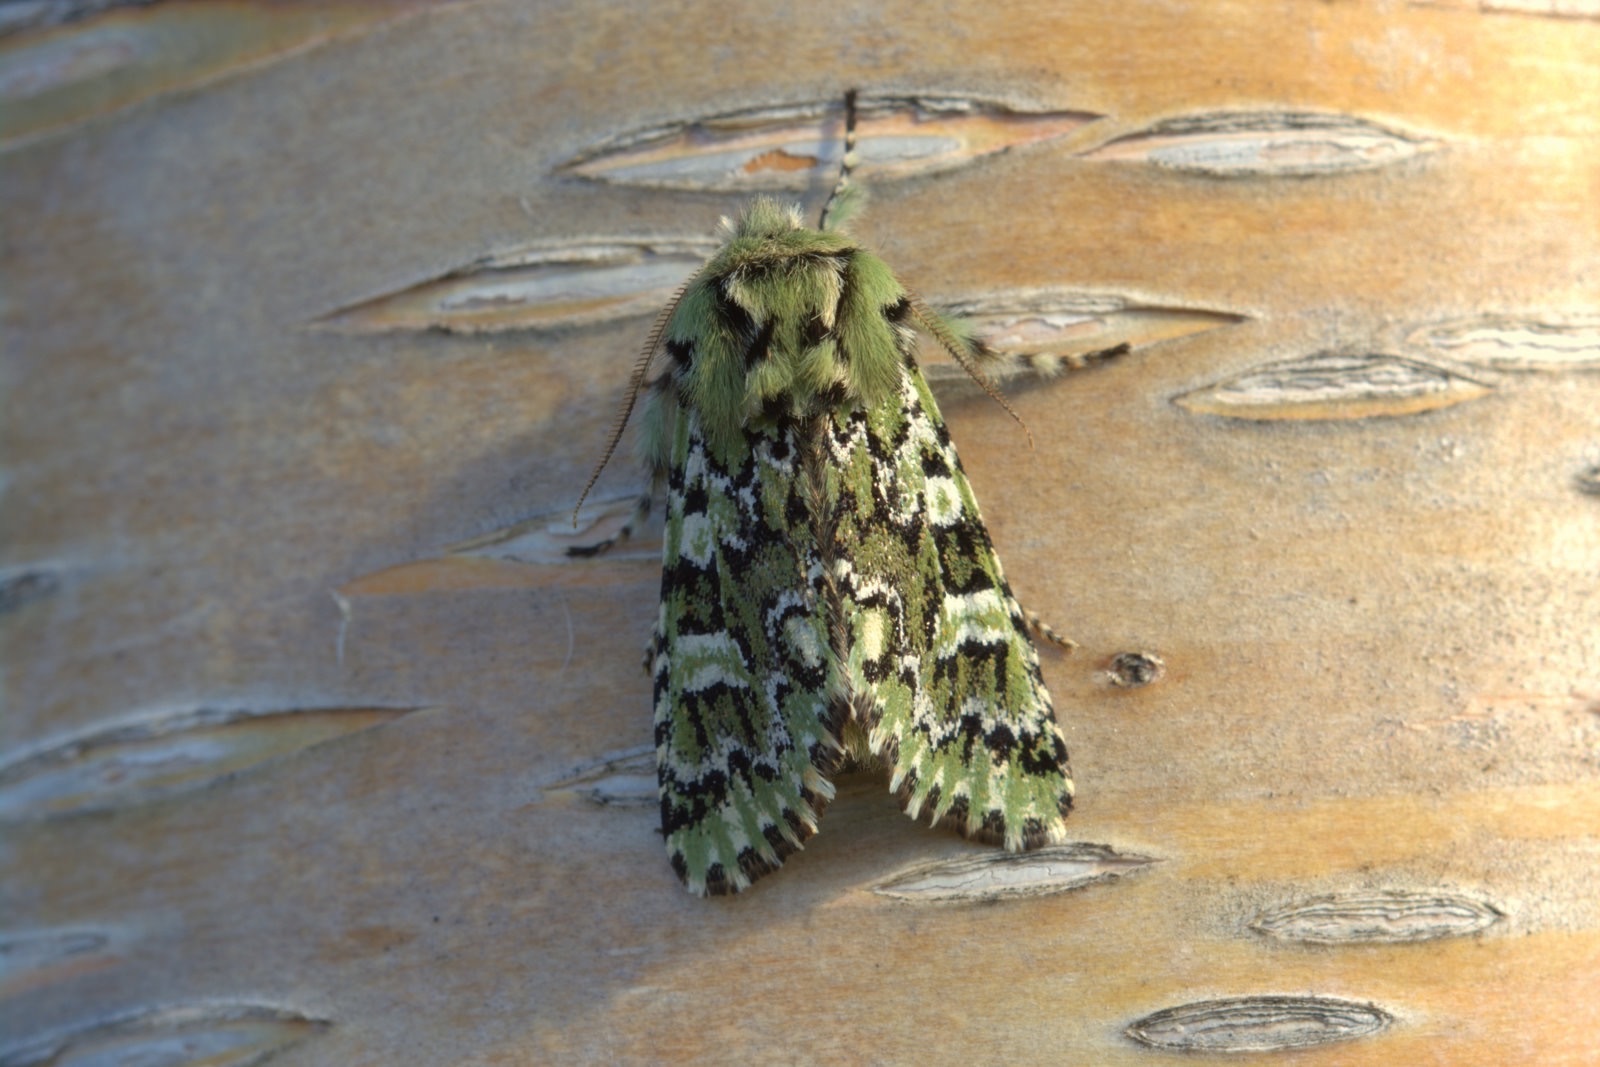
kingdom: Animalia
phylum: Arthropoda
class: Insecta
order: Lepidoptera
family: Noctuidae
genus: Feralia
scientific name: Feralia jocosa
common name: Joker
